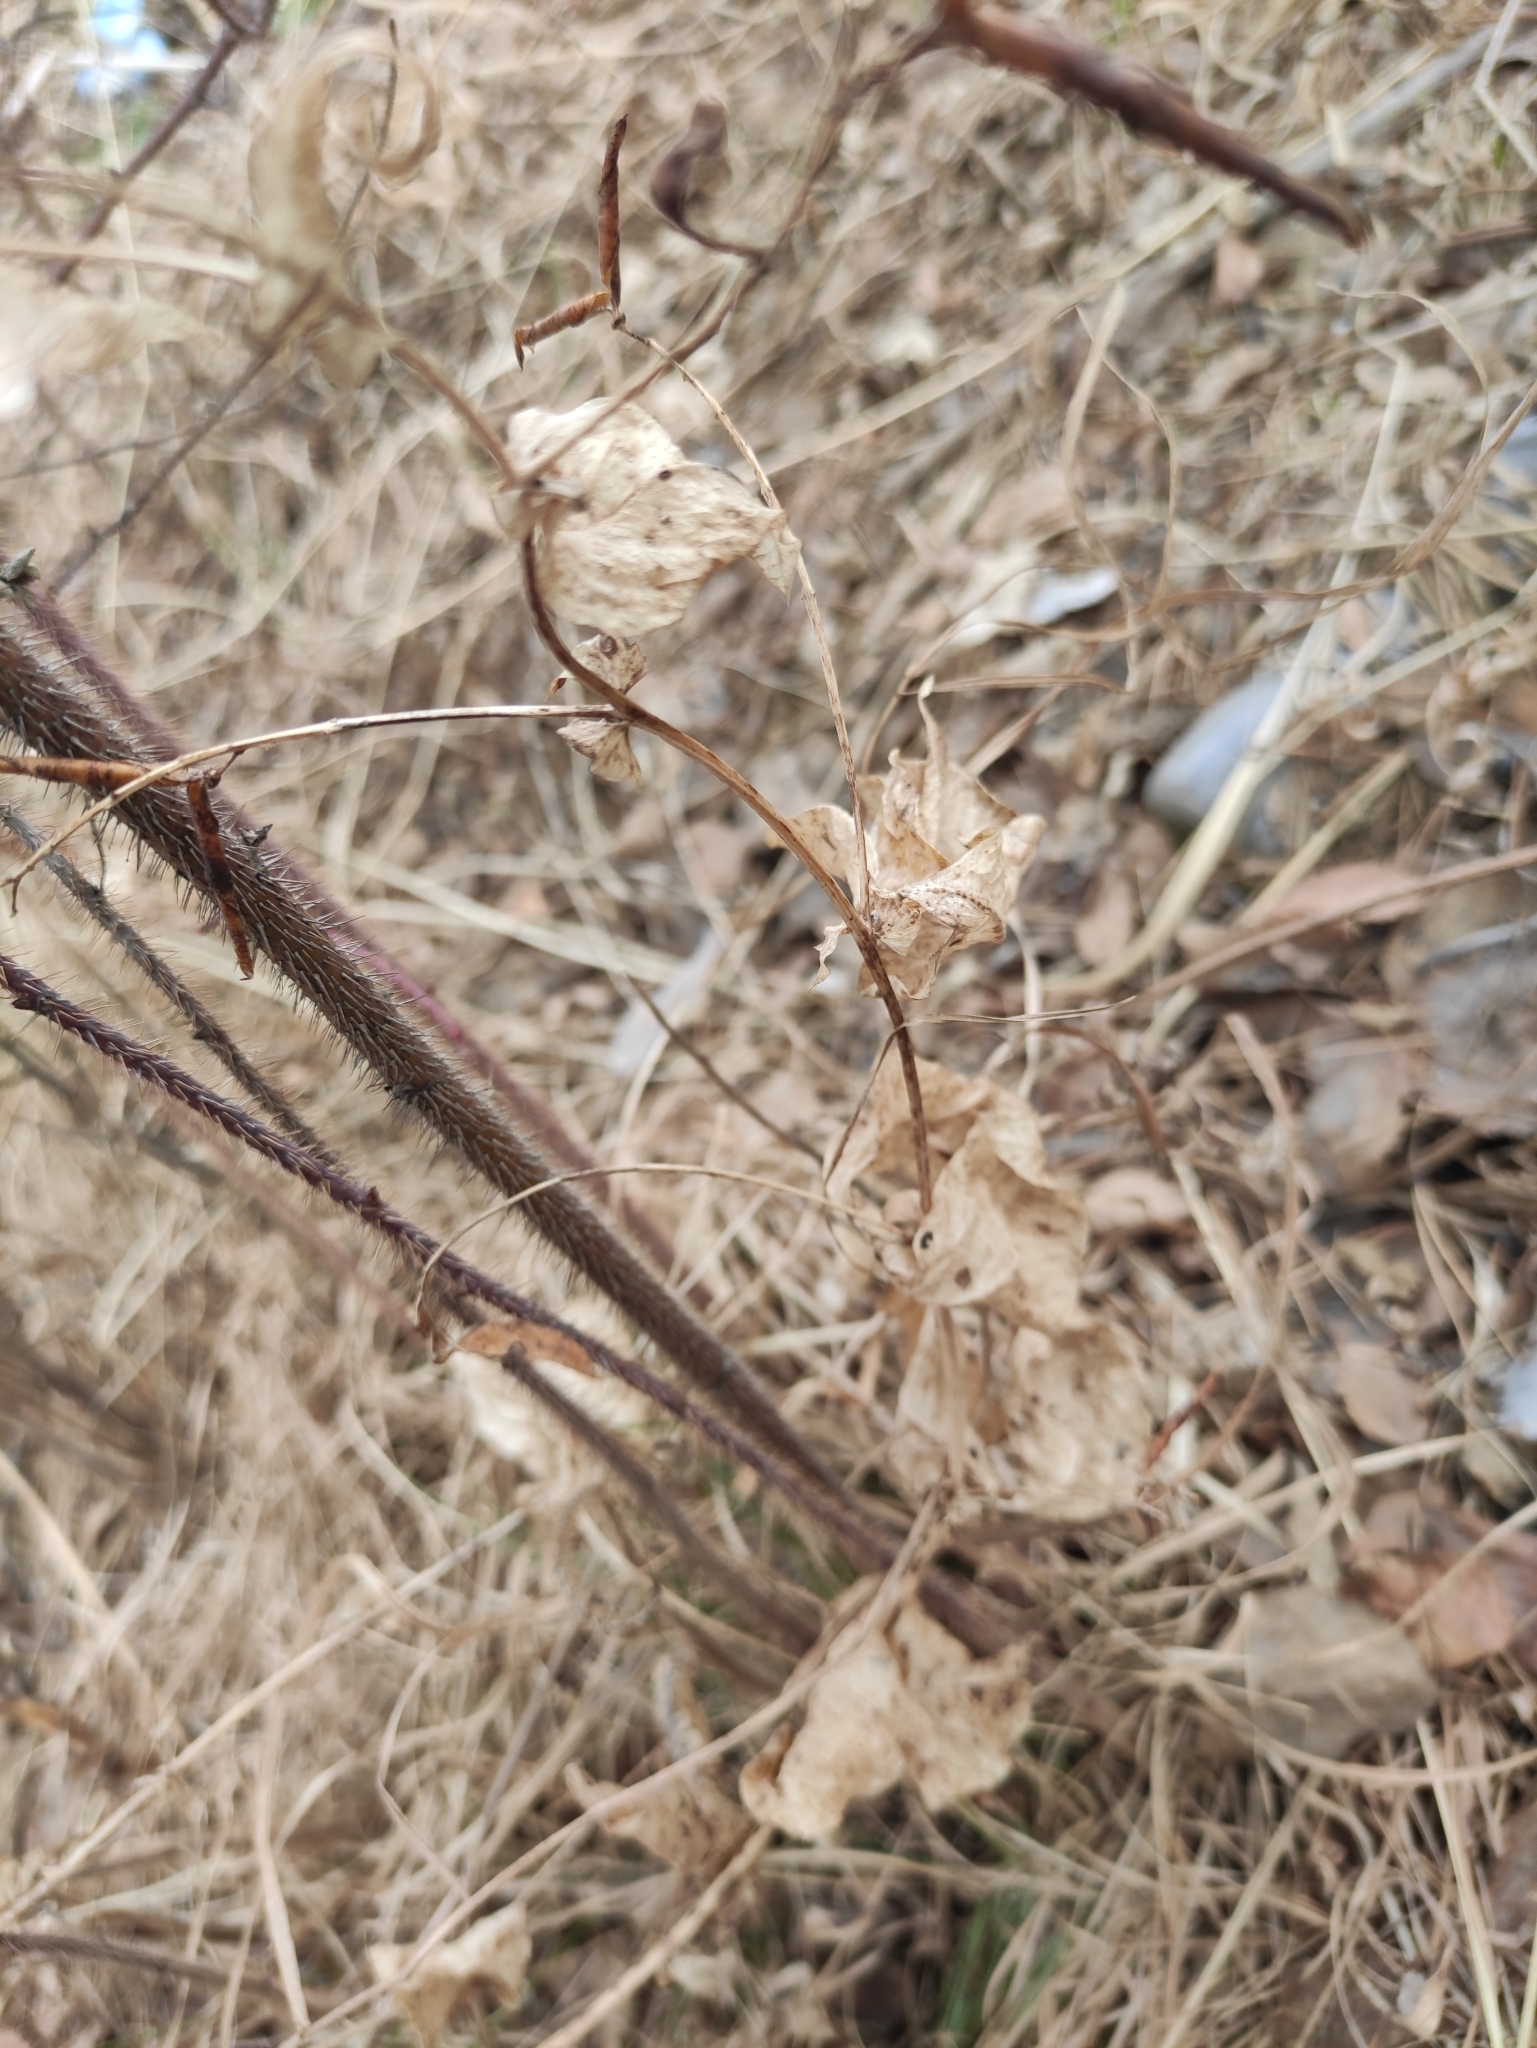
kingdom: Plantae
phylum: Tracheophyta
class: Magnoliopsida
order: Fabales
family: Fabaceae
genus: Vicia
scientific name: Vicia unijuga
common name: Two-leaf vetch
